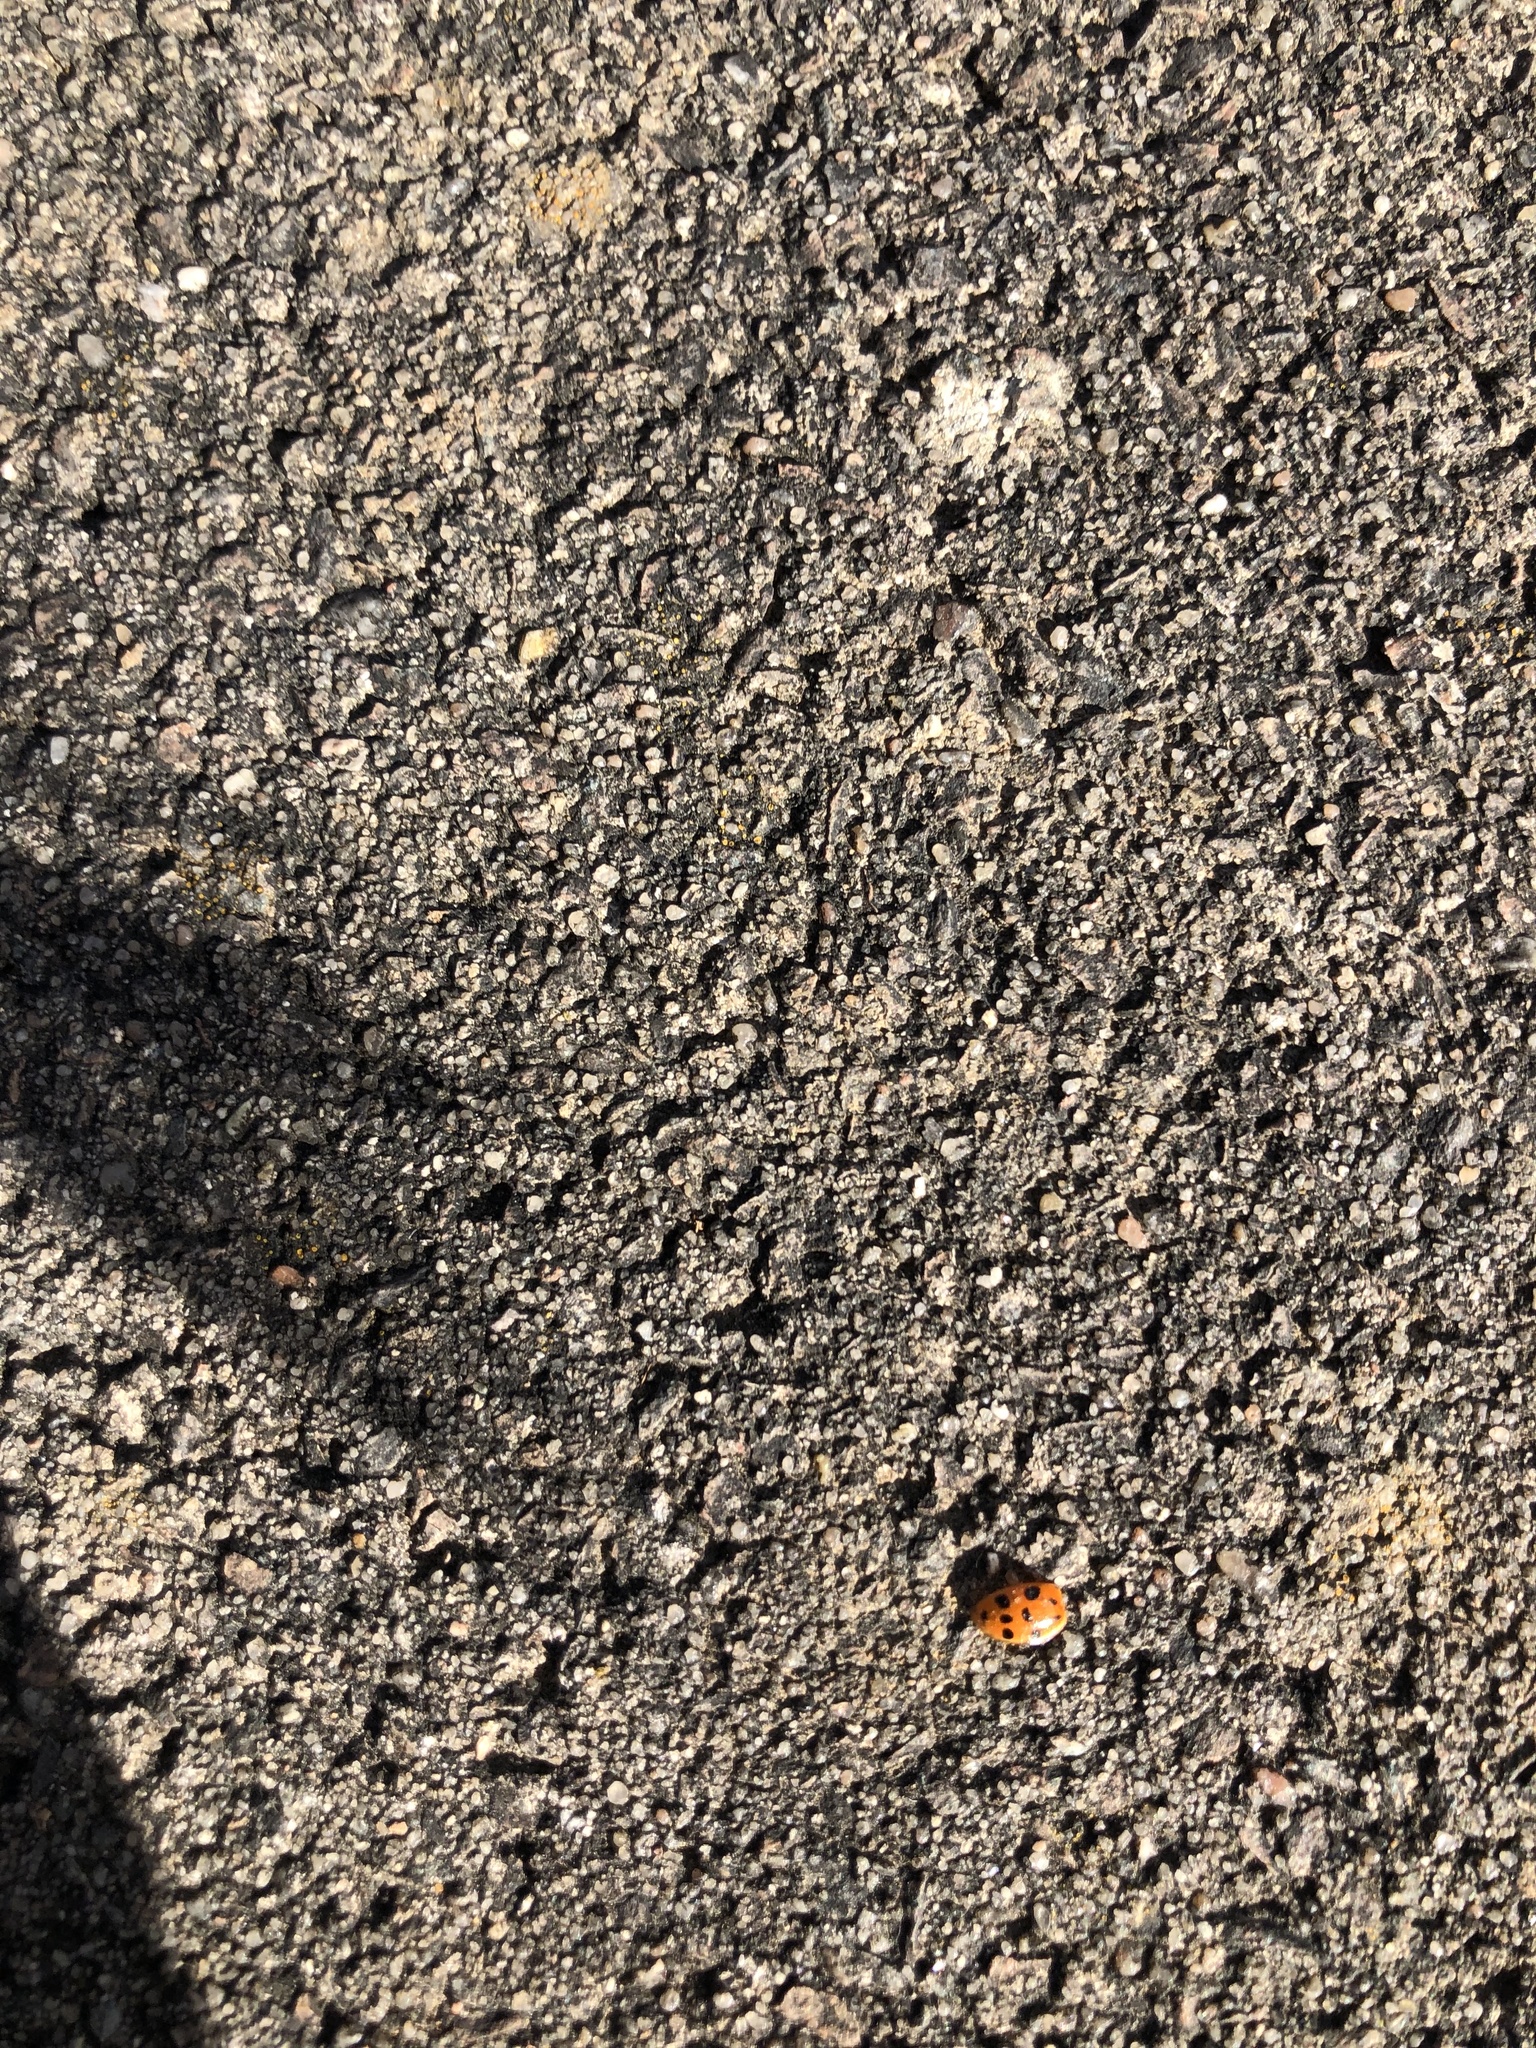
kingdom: Animalia
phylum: Arthropoda
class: Insecta
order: Coleoptera
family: Coccinellidae
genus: Harmonia
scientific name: Harmonia axyridis
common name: Harlequin ladybird
